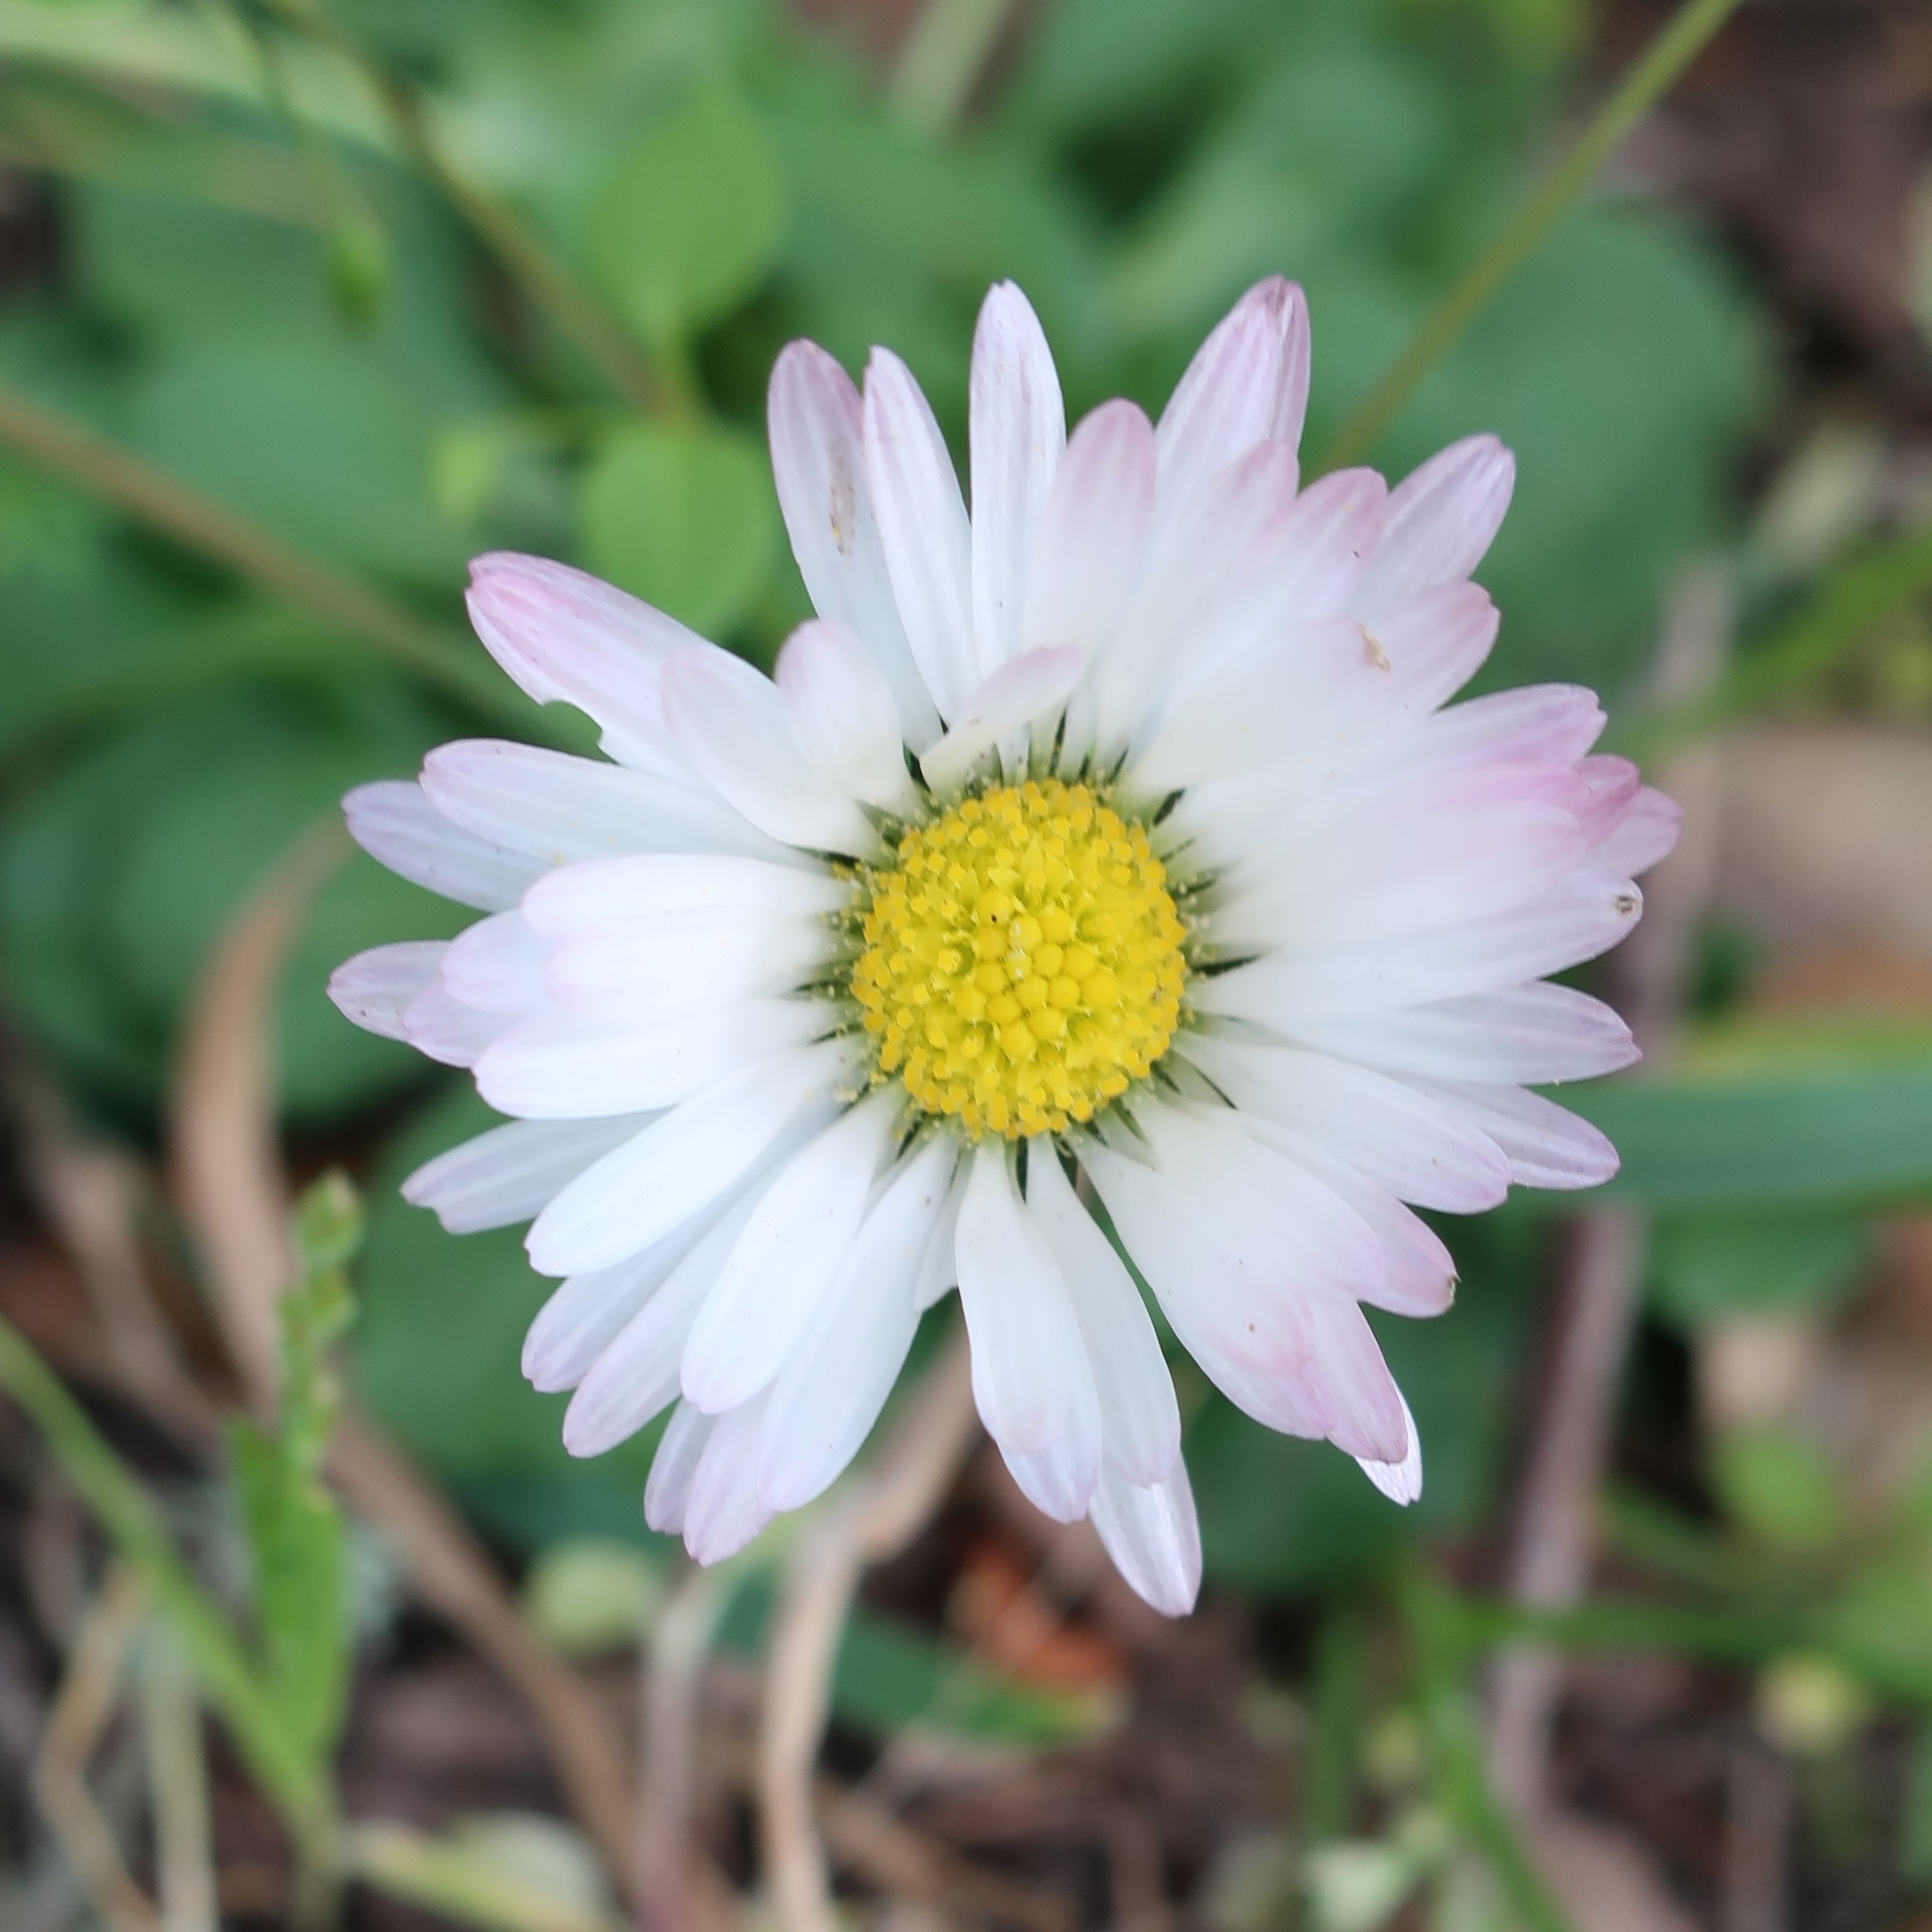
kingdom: Plantae
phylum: Tracheophyta
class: Magnoliopsida
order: Asterales
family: Asteraceae
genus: Bellis
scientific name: Bellis perennis
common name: Lawndaisy
